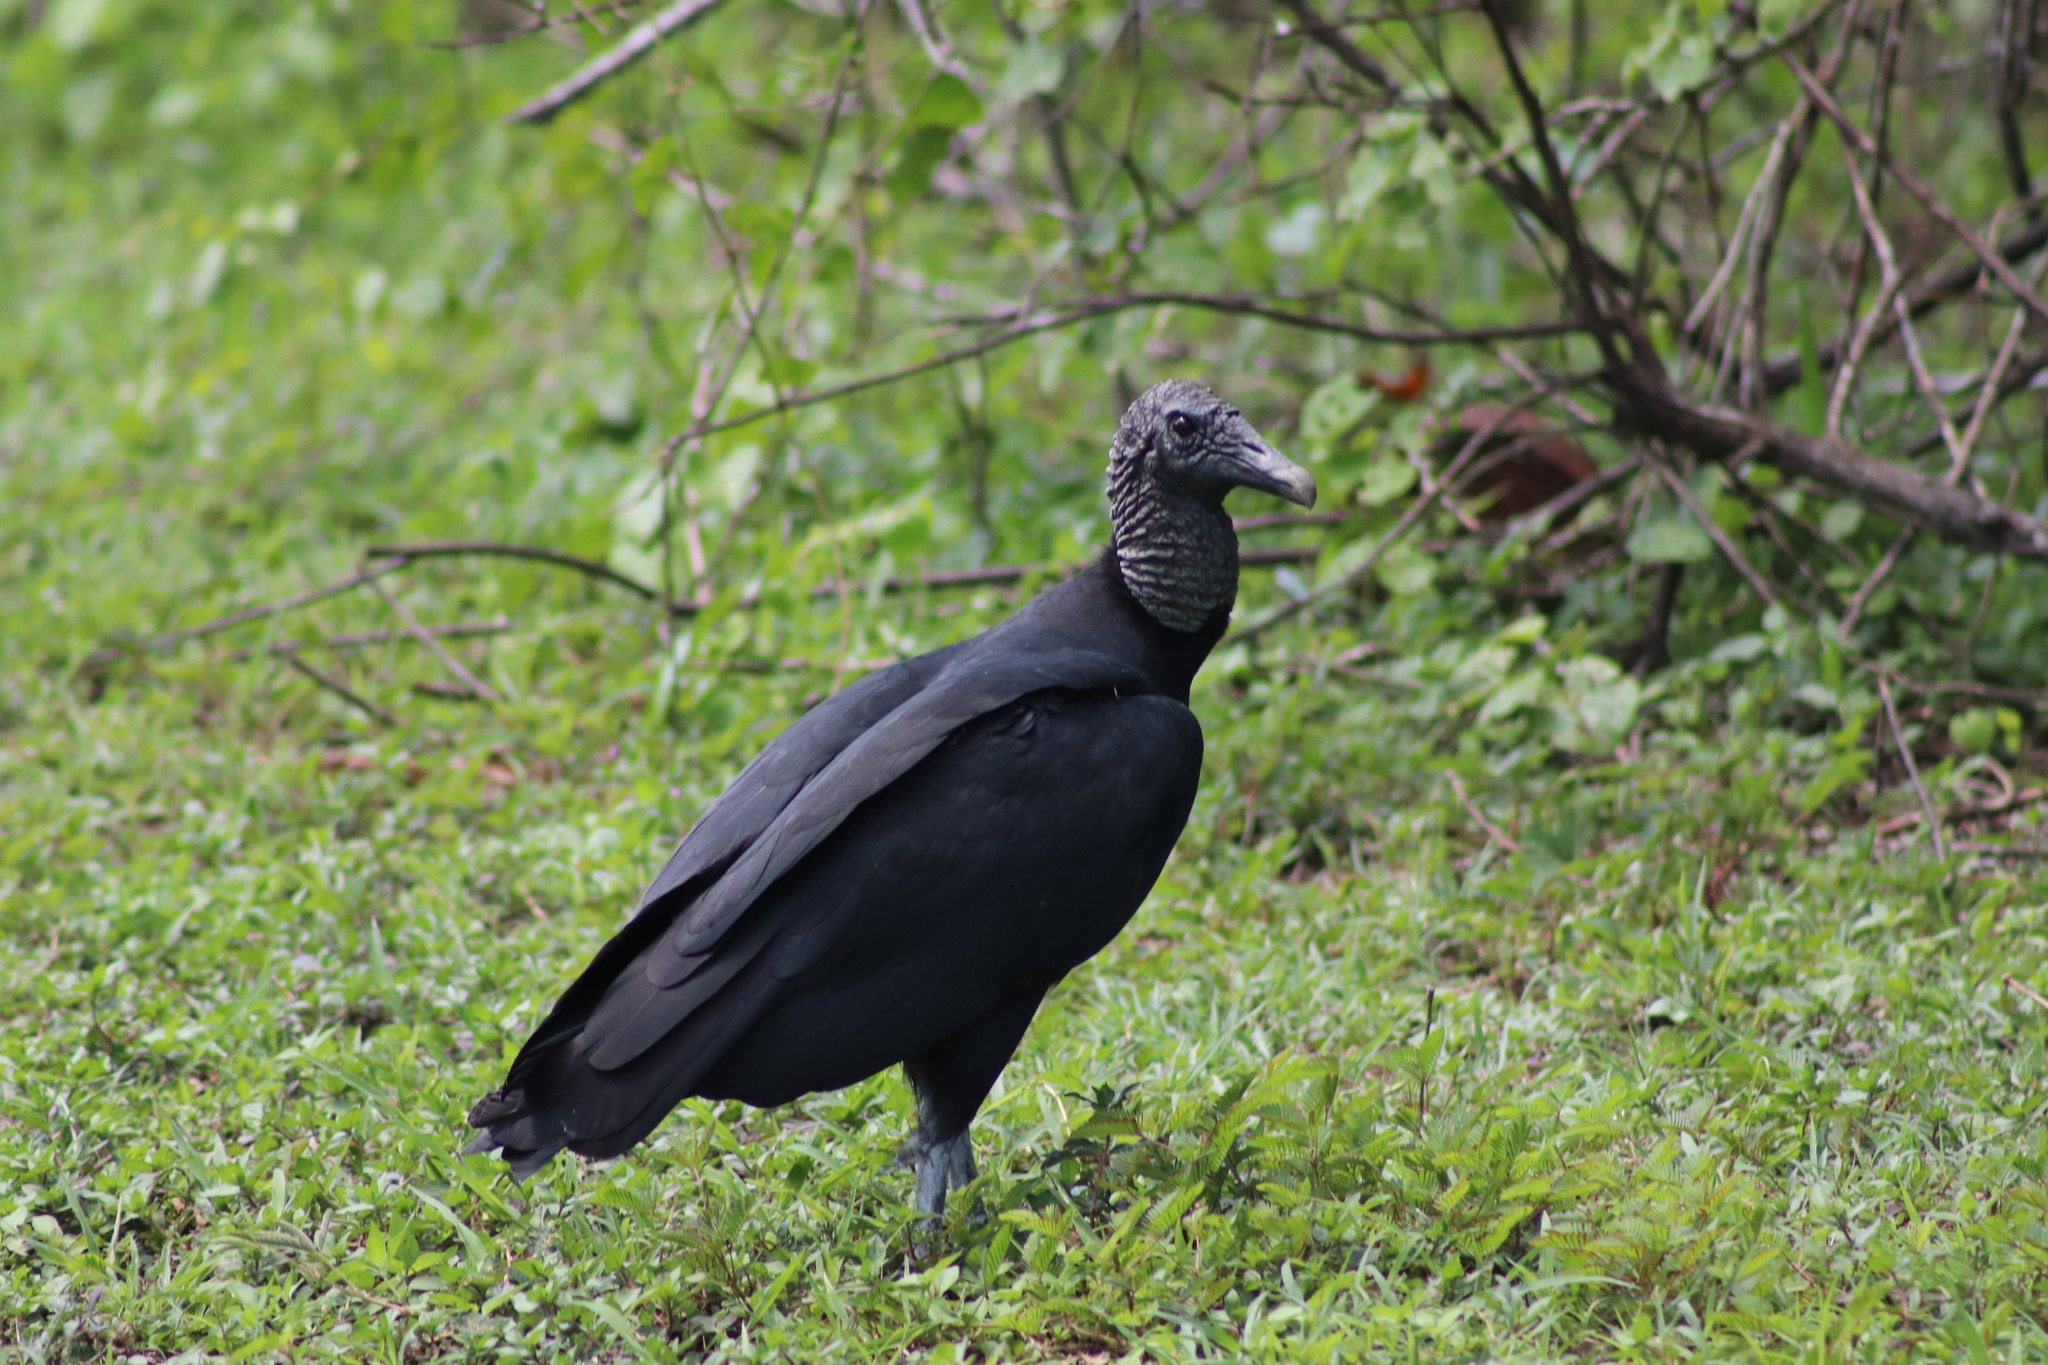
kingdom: Animalia
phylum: Chordata
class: Aves
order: Accipitriformes
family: Cathartidae
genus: Coragyps
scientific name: Coragyps atratus
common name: Black vulture
